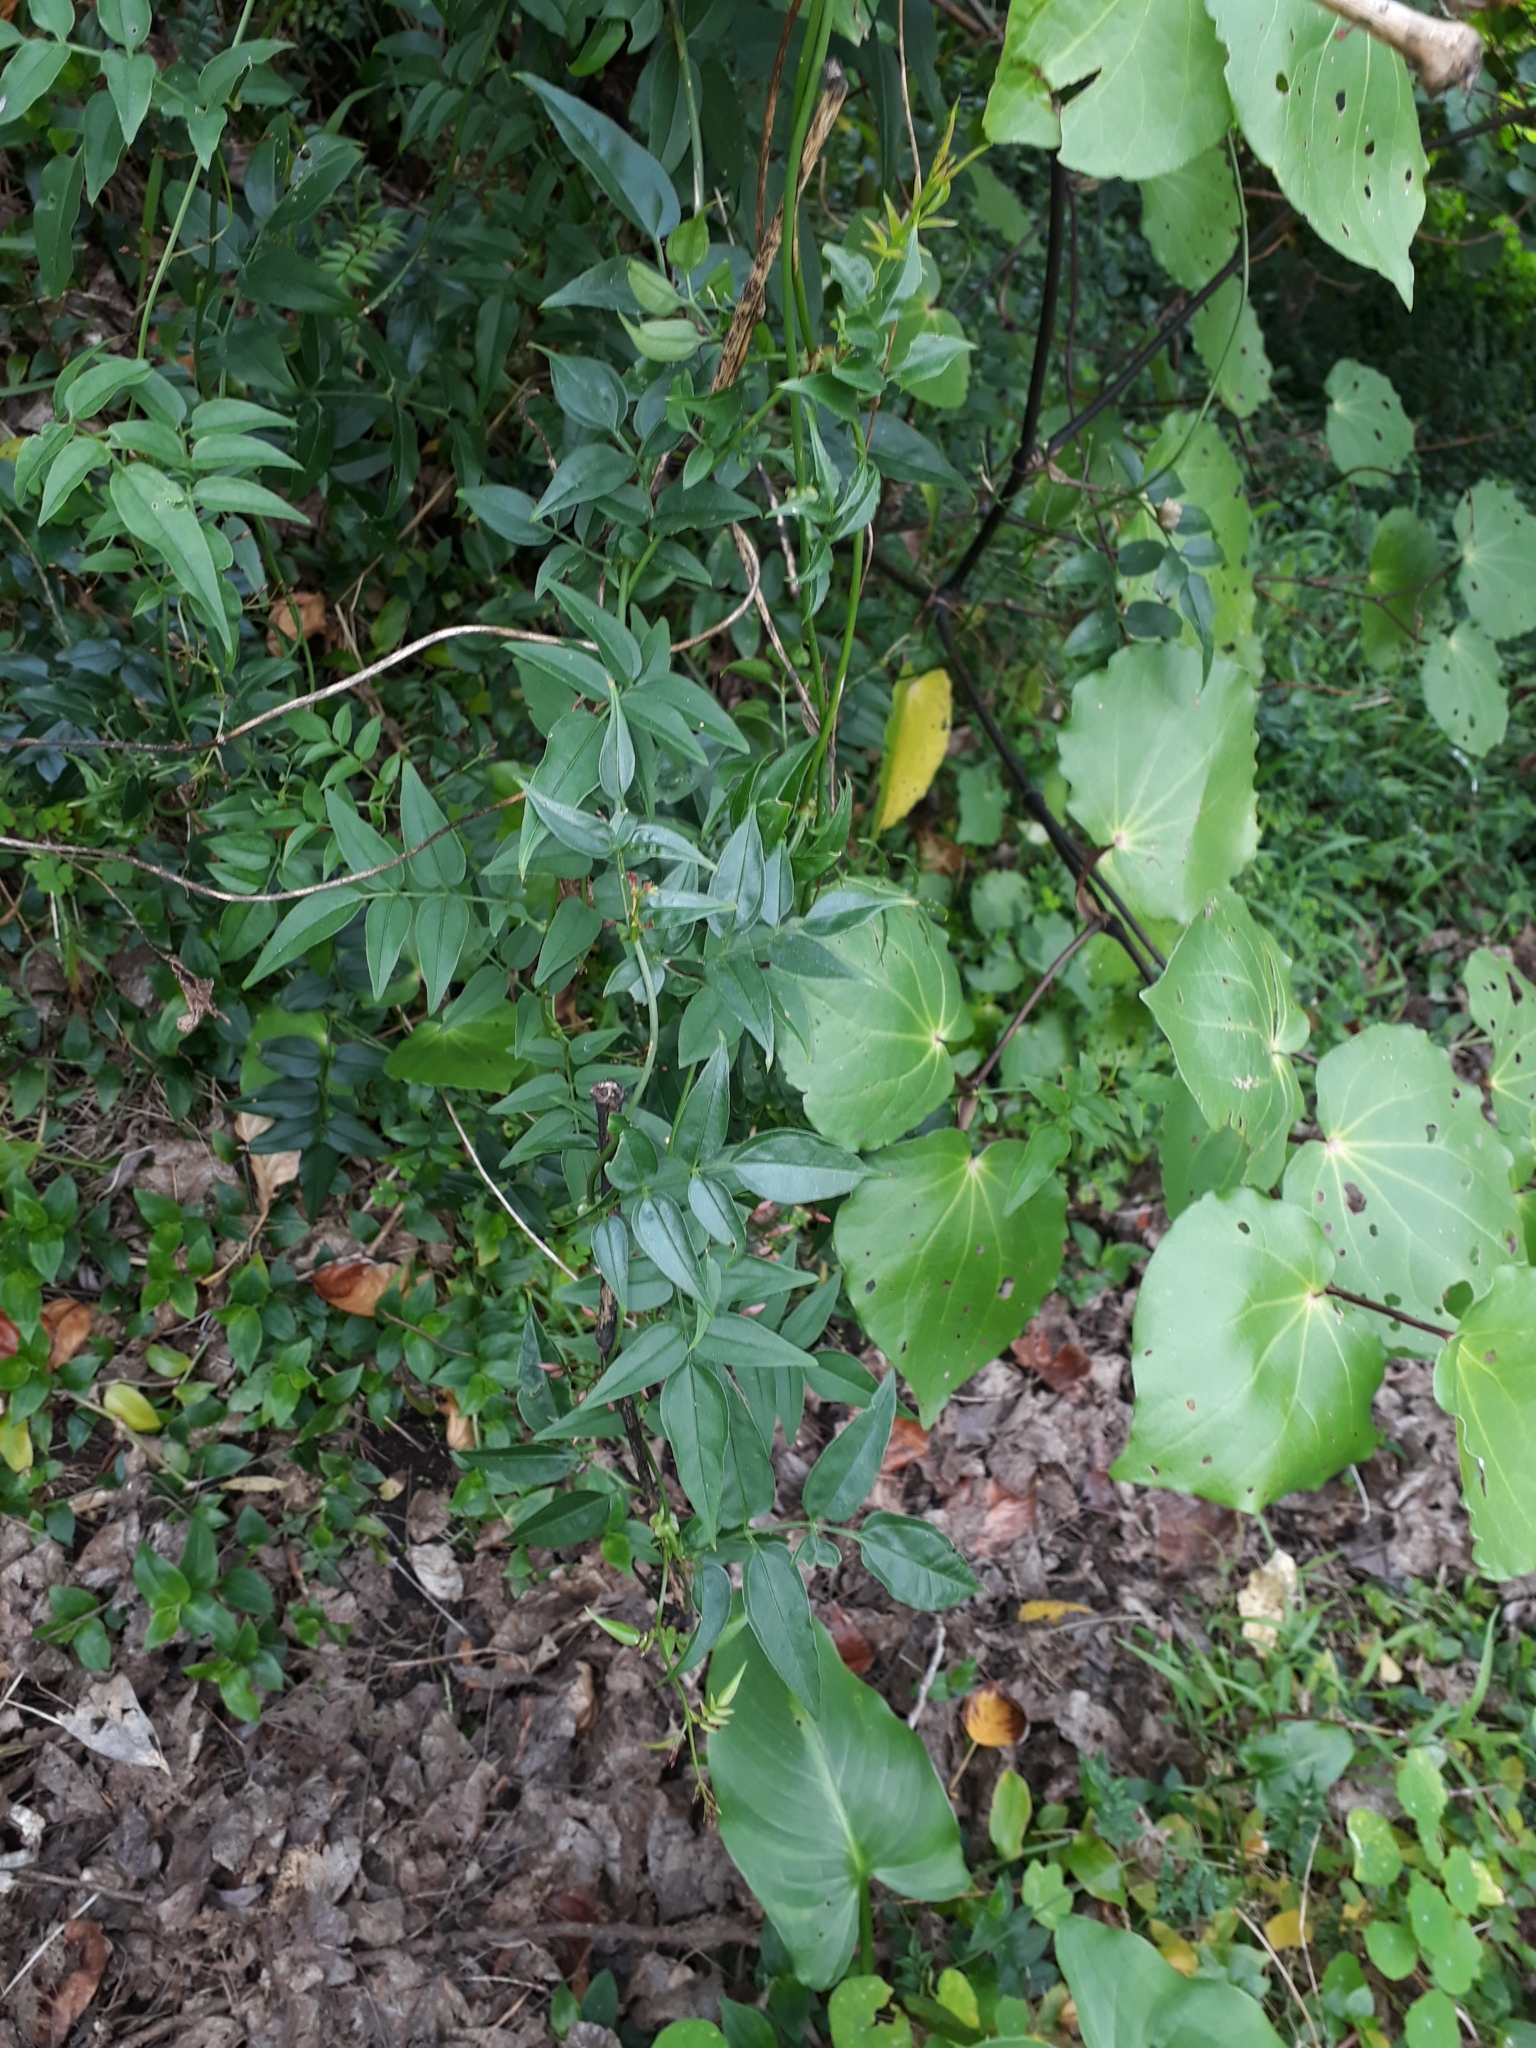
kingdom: Plantae
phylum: Tracheophyta
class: Magnoliopsida
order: Lamiales
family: Oleaceae
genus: Jasminum
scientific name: Jasminum polyanthum
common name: Pink jasmine
